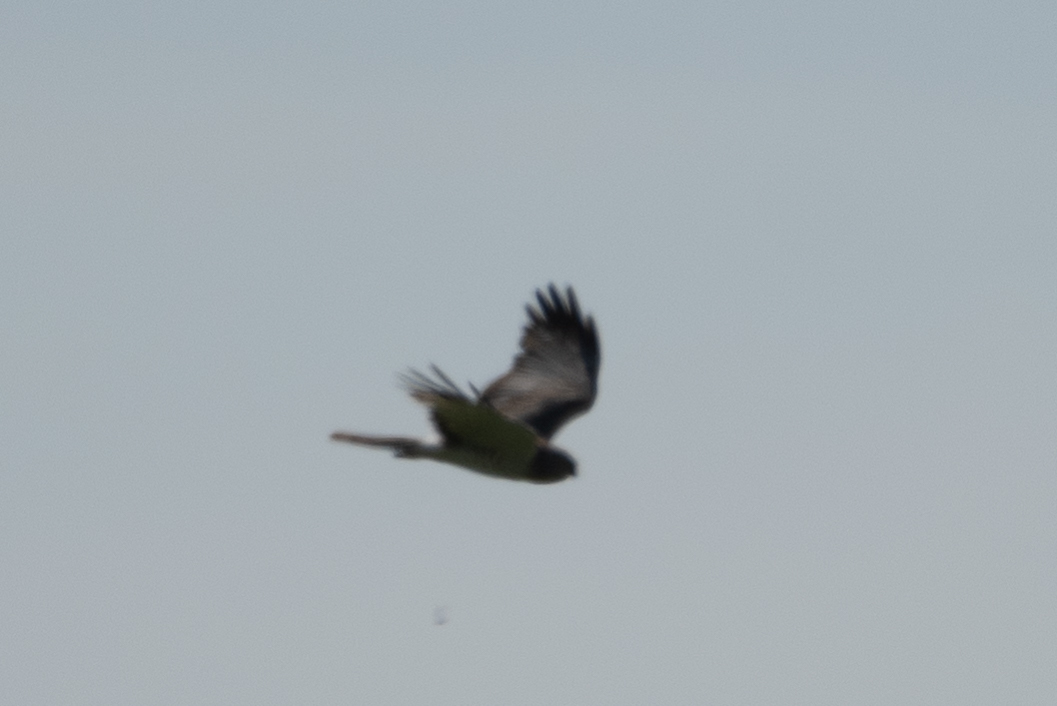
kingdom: Animalia
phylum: Chordata
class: Aves
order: Accipitriformes
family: Accipitridae
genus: Circus
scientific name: Circus cyaneus
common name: Hen harrier
